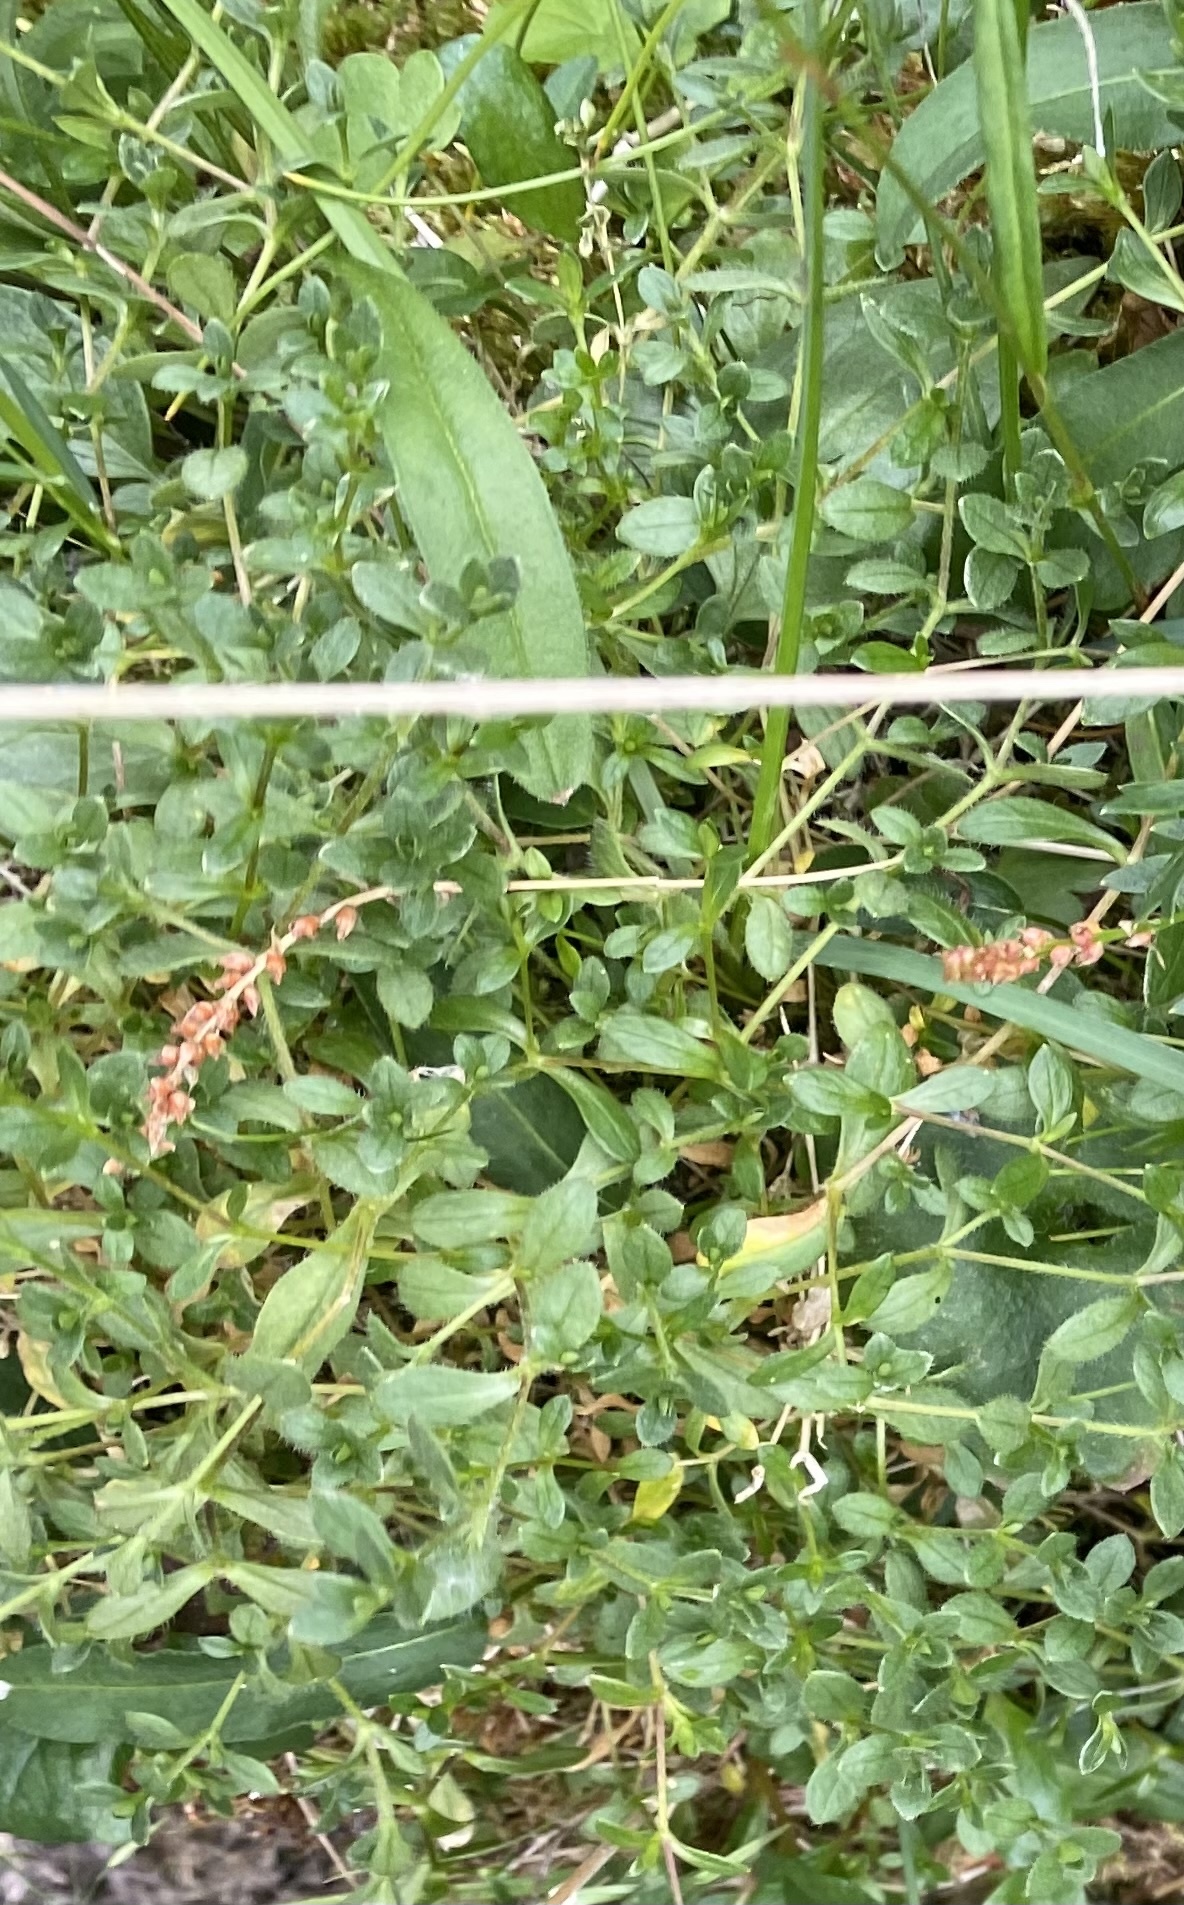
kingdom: Plantae
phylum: Tracheophyta
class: Magnoliopsida
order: Caryophyllales
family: Caryophyllaceae
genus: Cerastium
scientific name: Cerastium regelii
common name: Regel's chickweed
